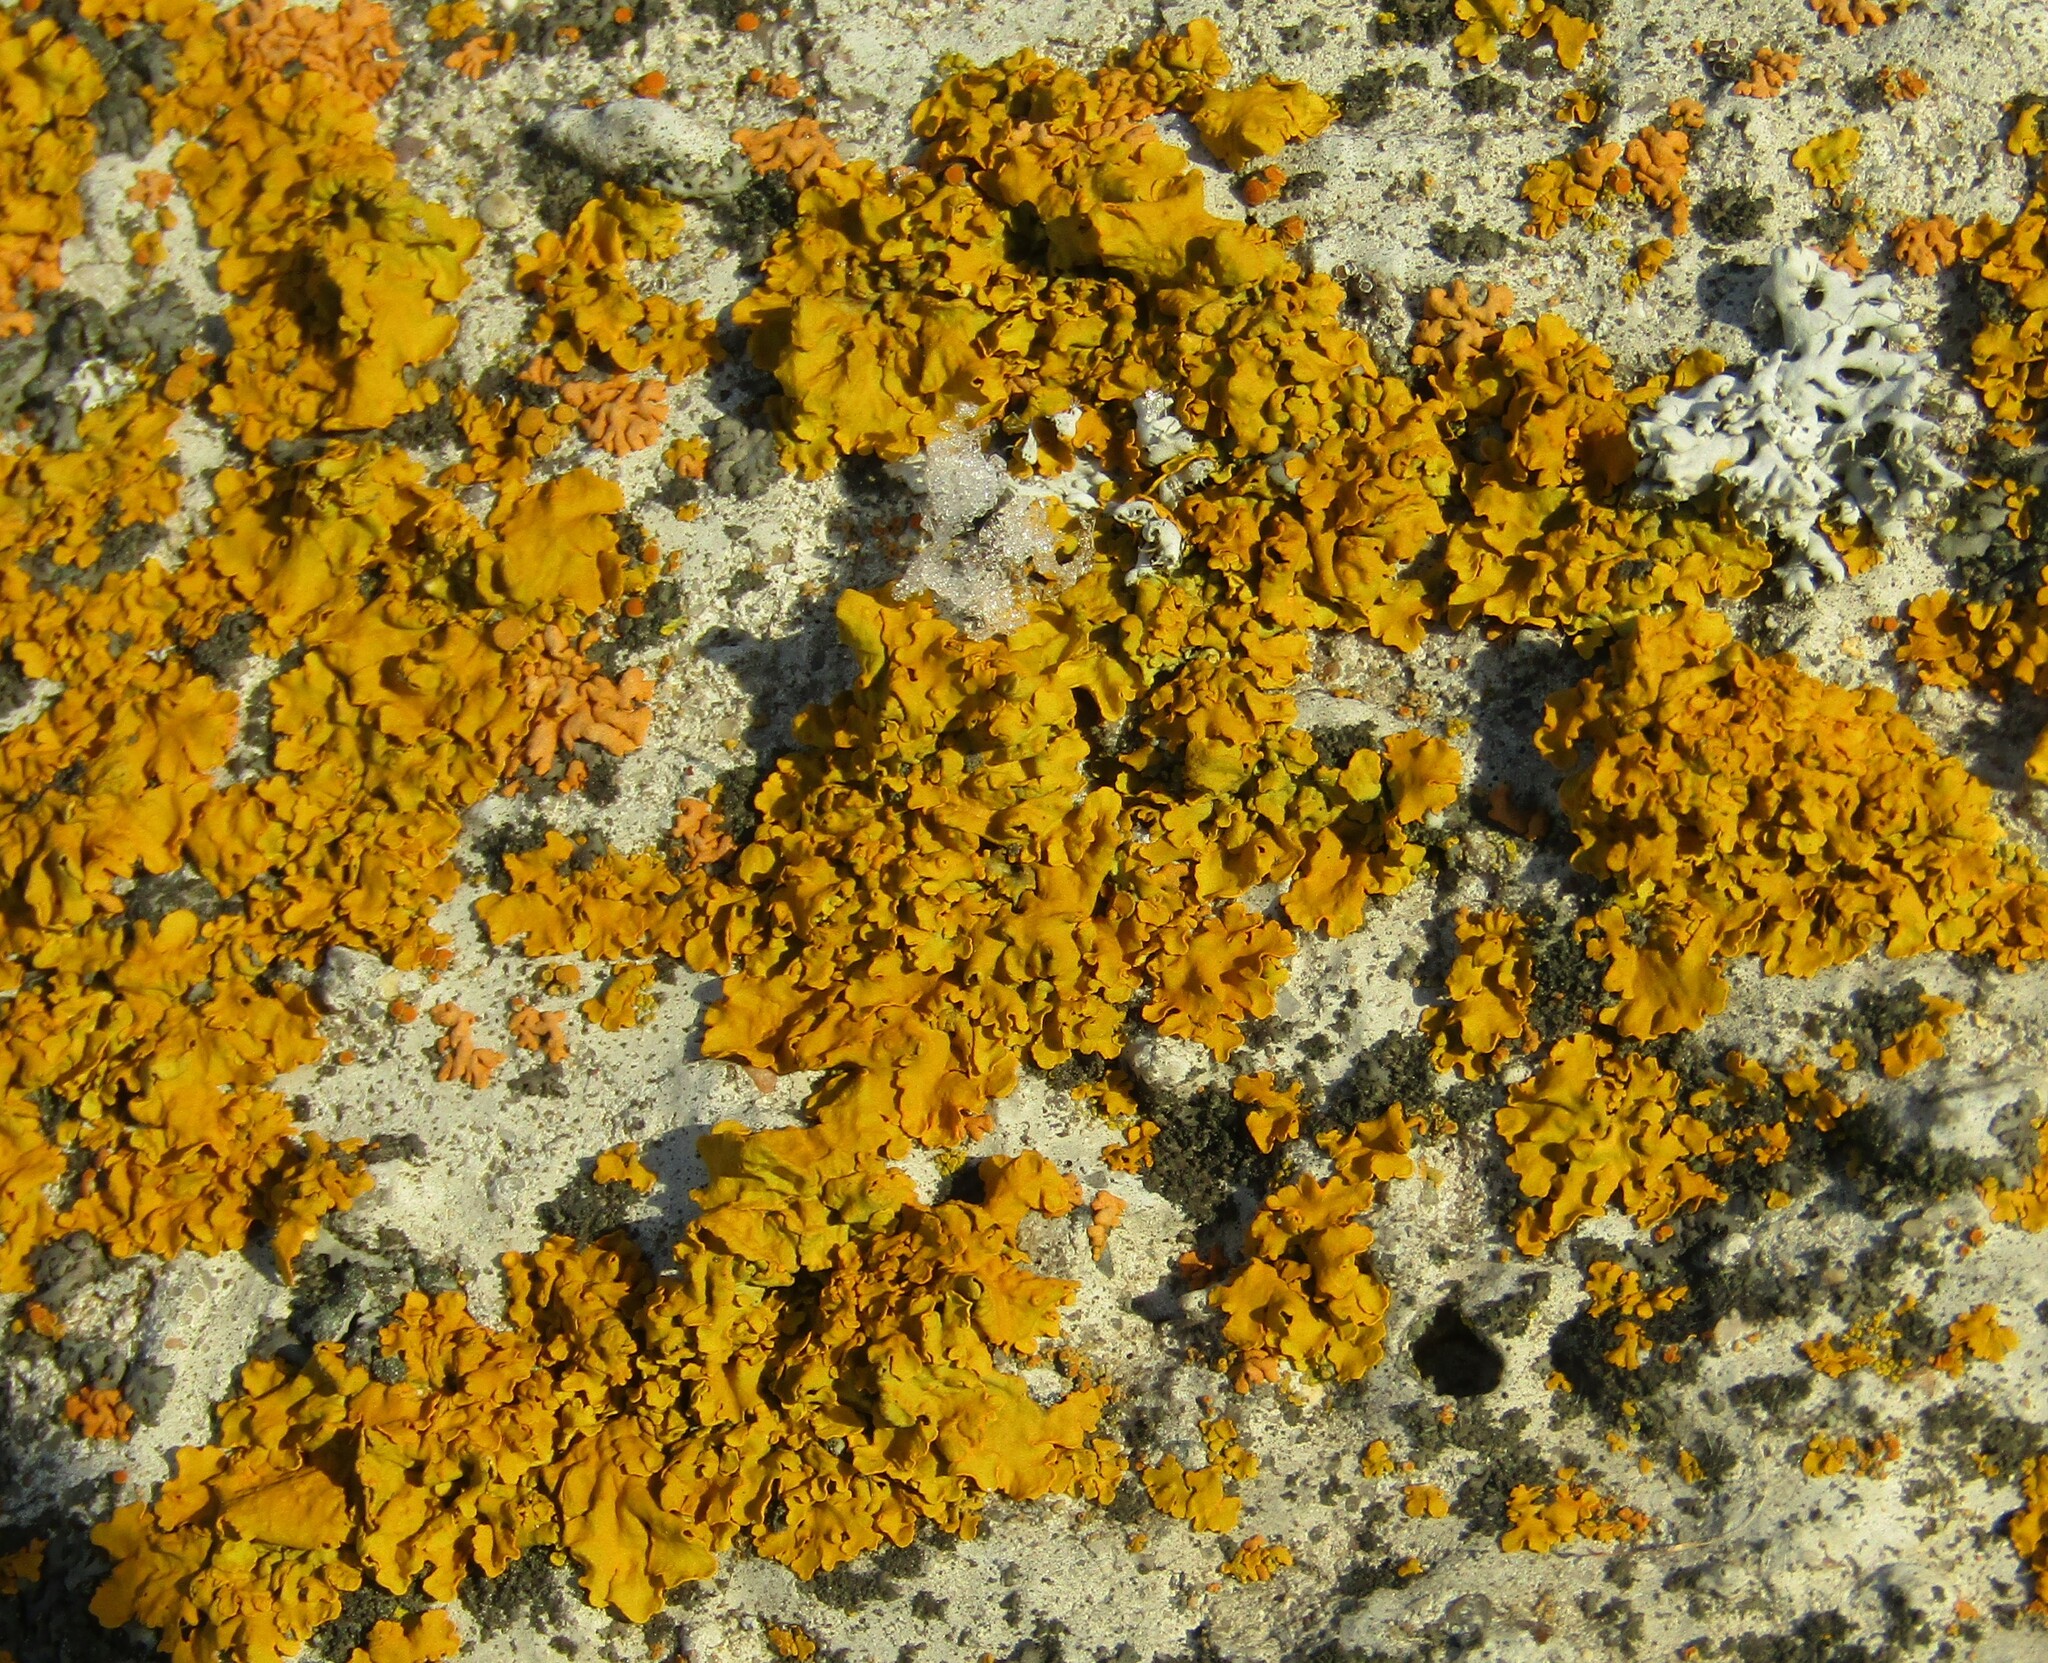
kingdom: Fungi
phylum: Ascomycota
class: Lecanoromycetes
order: Teloschistales
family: Teloschistaceae
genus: Xanthoria
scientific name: Xanthoria parietina
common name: Common orange lichen
